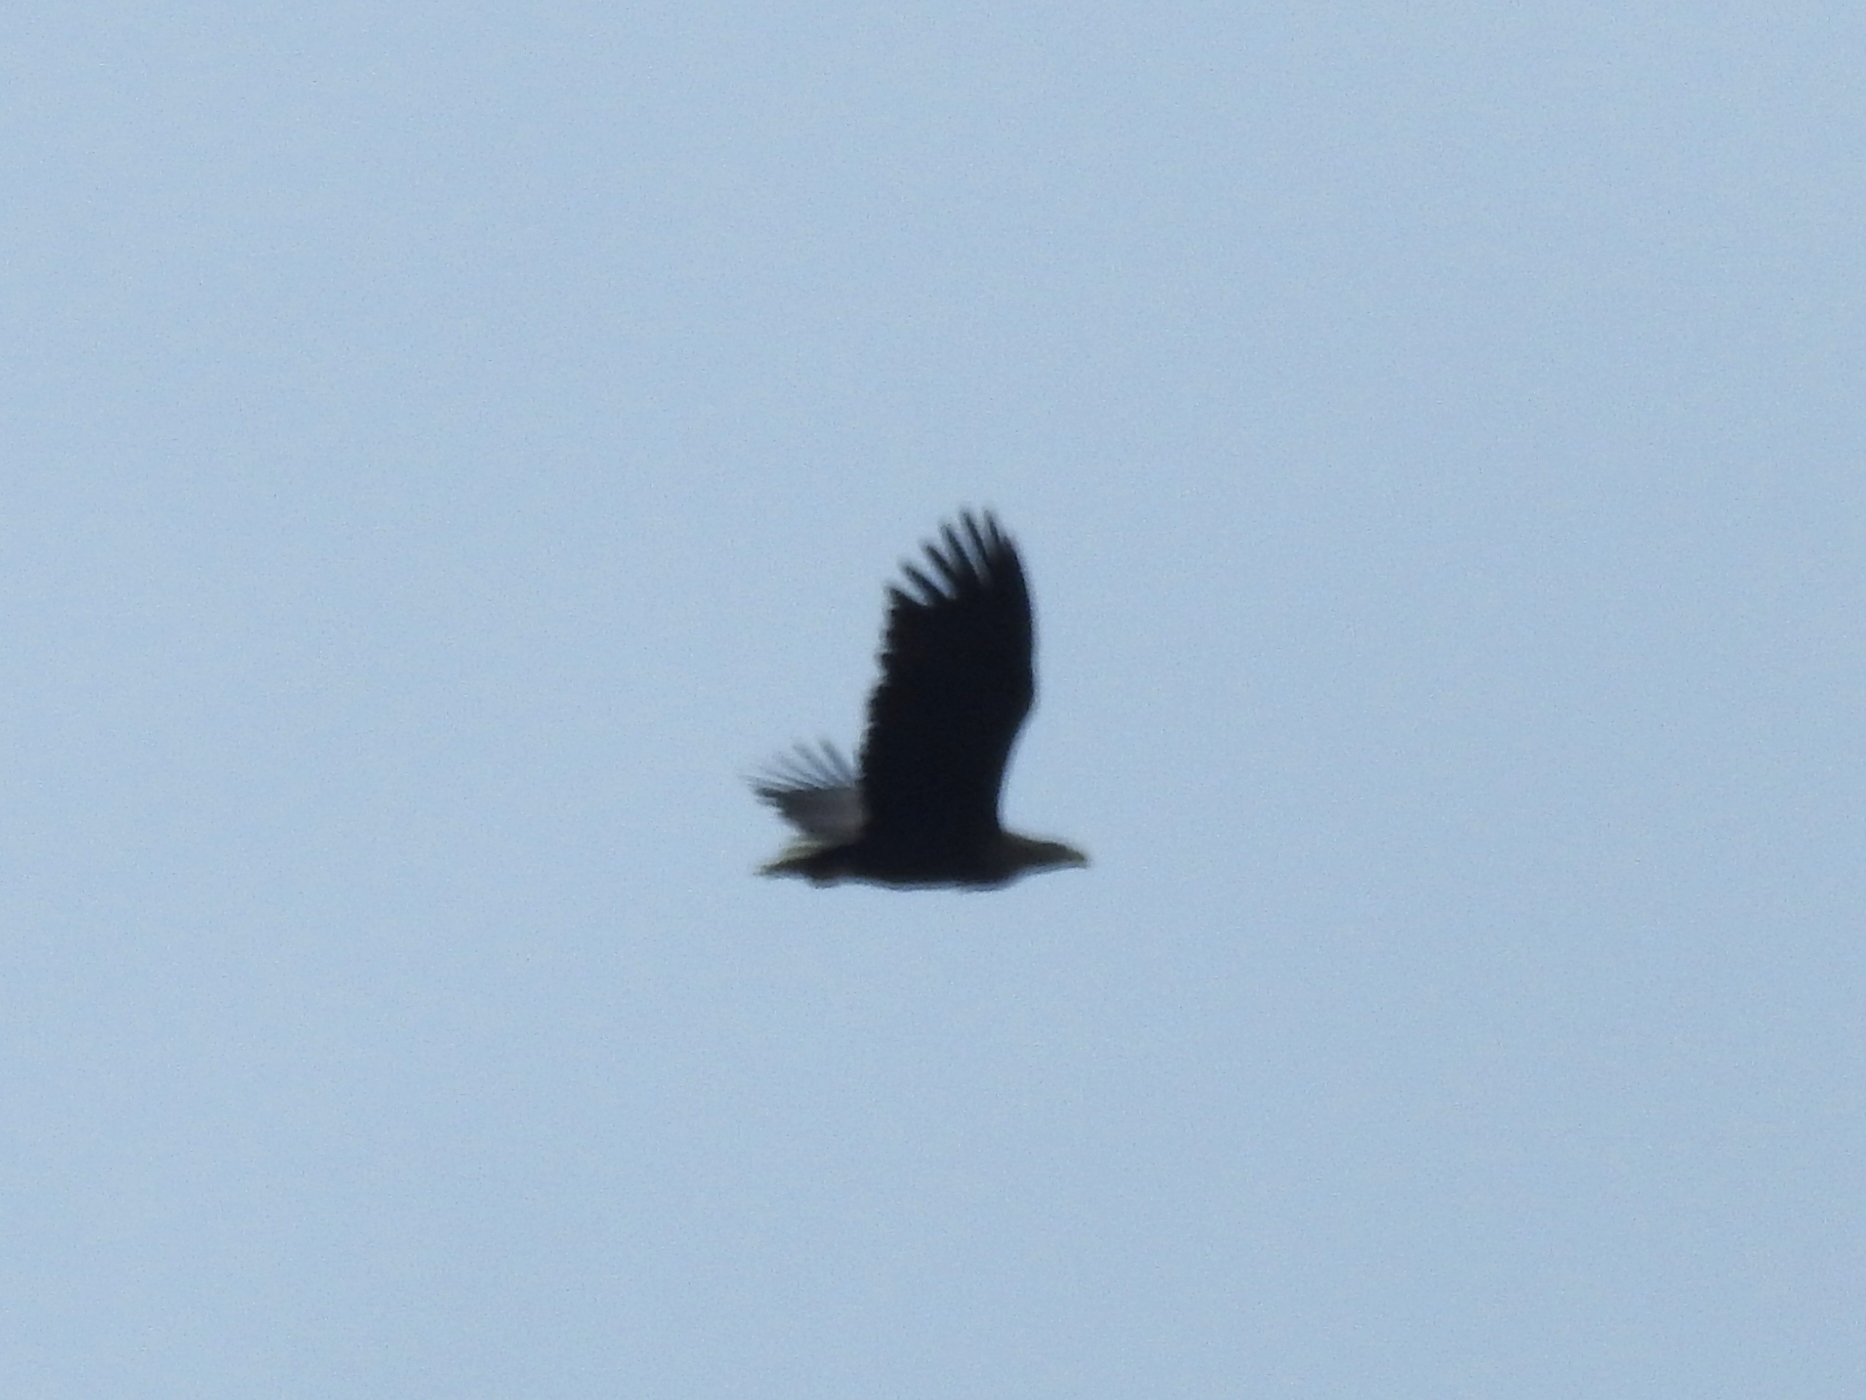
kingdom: Animalia
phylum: Chordata
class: Aves
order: Accipitriformes
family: Accipitridae
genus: Haliaeetus
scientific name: Haliaeetus albicilla
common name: White-tailed eagle
